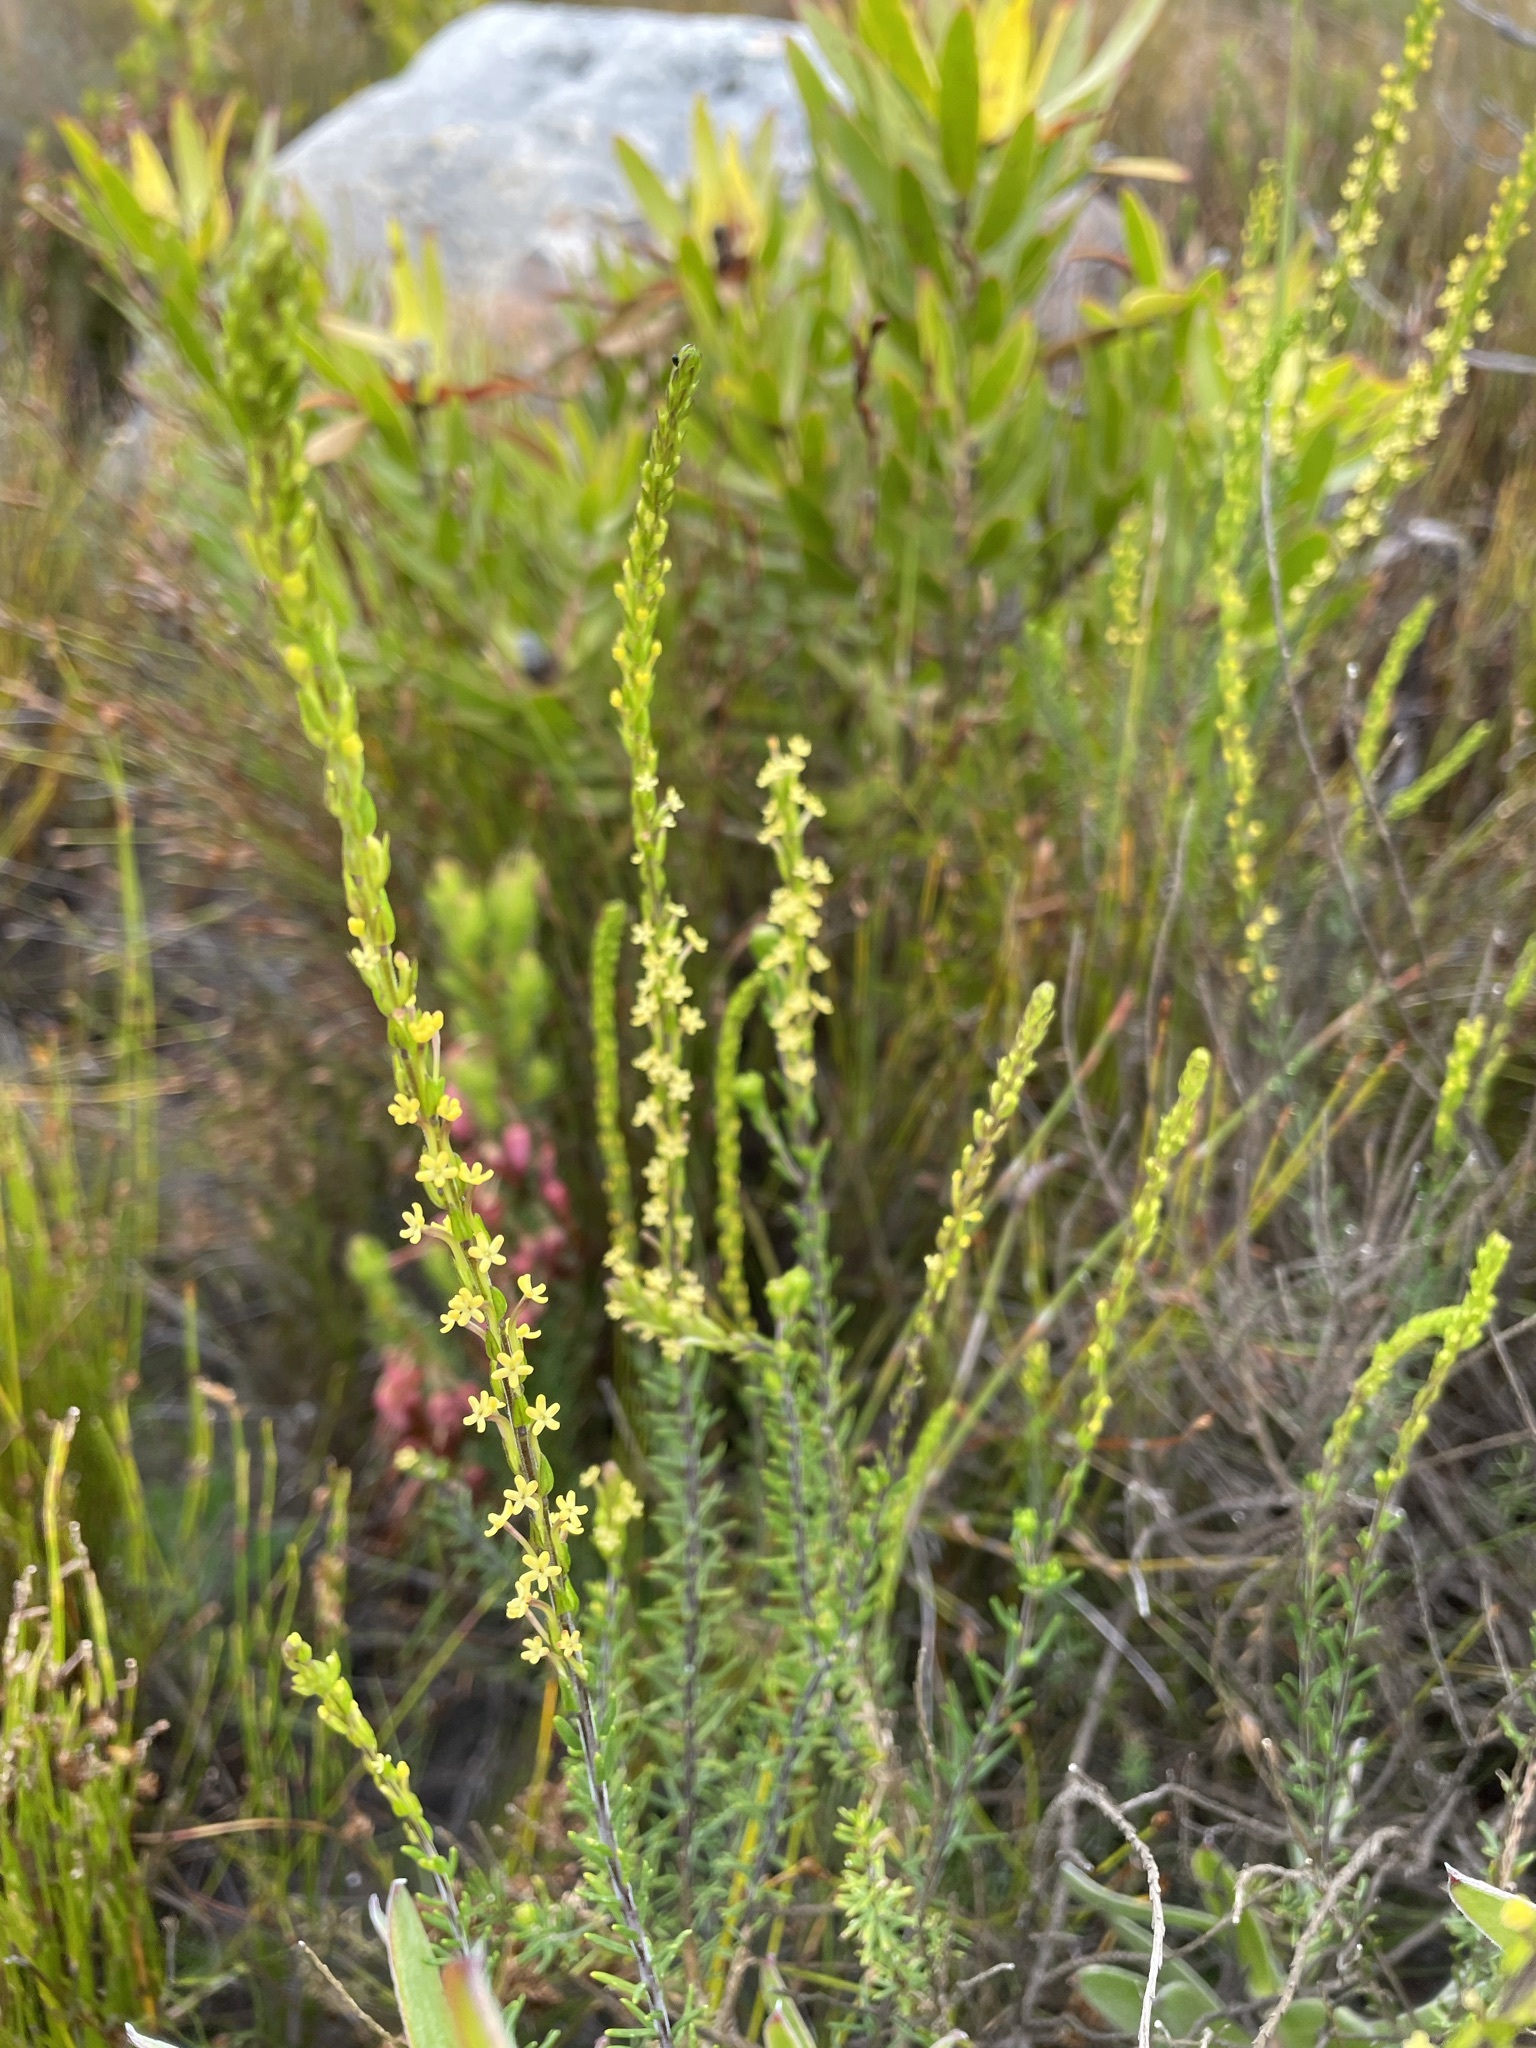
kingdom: Plantae
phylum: Tracheophyta
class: Magnoliopsida
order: Lamiales
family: Scrophulariaceae
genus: Microdon
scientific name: Microdon dubius
